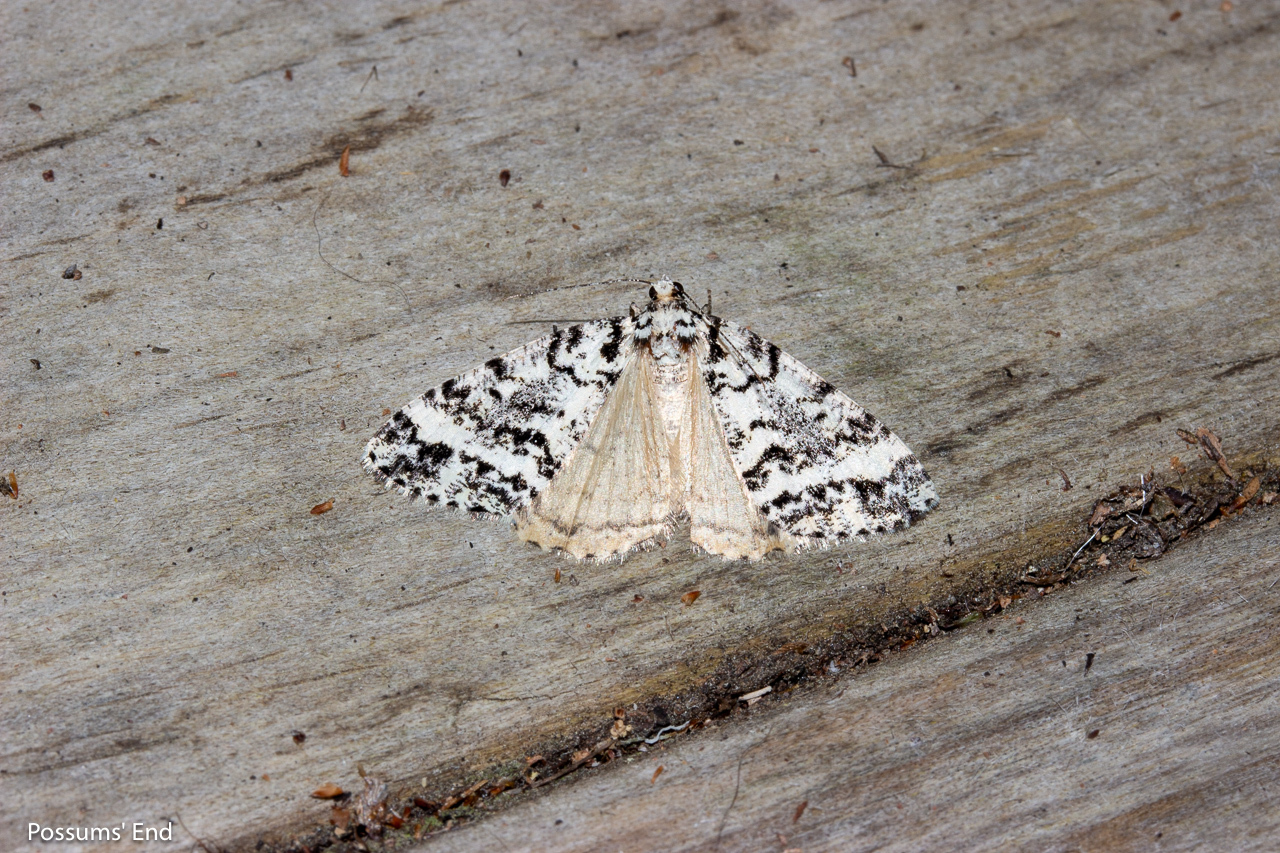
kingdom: Animalia
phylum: Arthropoda
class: Insecta
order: Lepidoptera
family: Geometridae
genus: Pseudocoremia
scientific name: Pseudocoremia leucelaea
